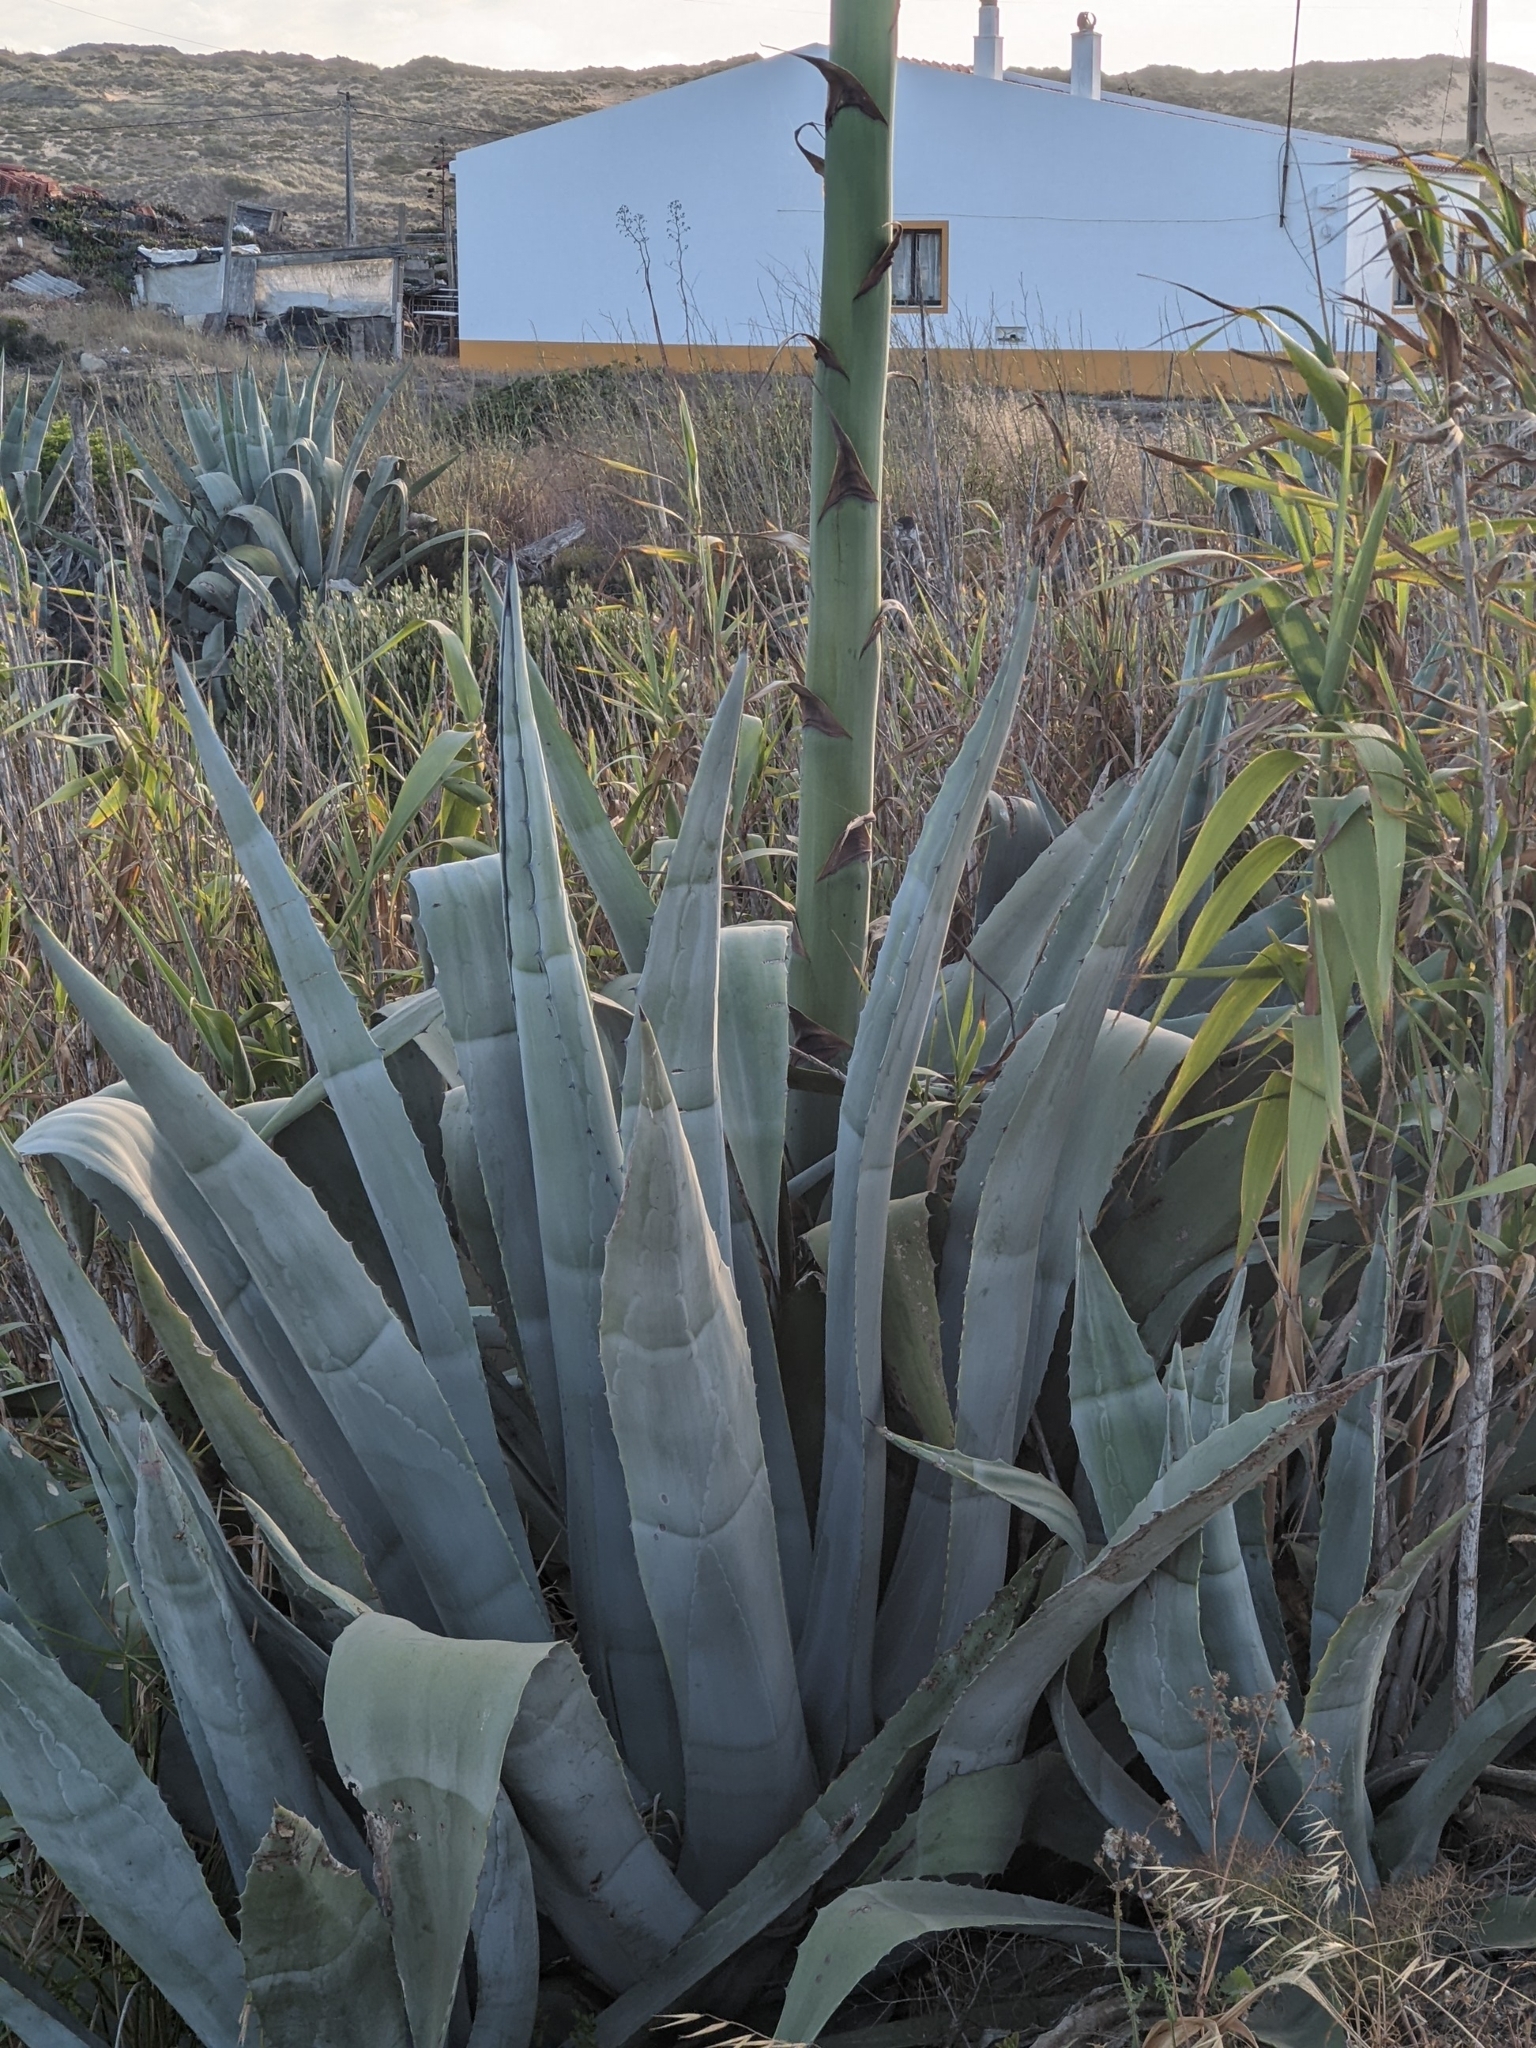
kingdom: Plantae
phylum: Tracheophyta
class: Liliopsida
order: Asparagales
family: Asparagaceae
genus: Agave
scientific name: Agave americana
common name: Centuryplant
